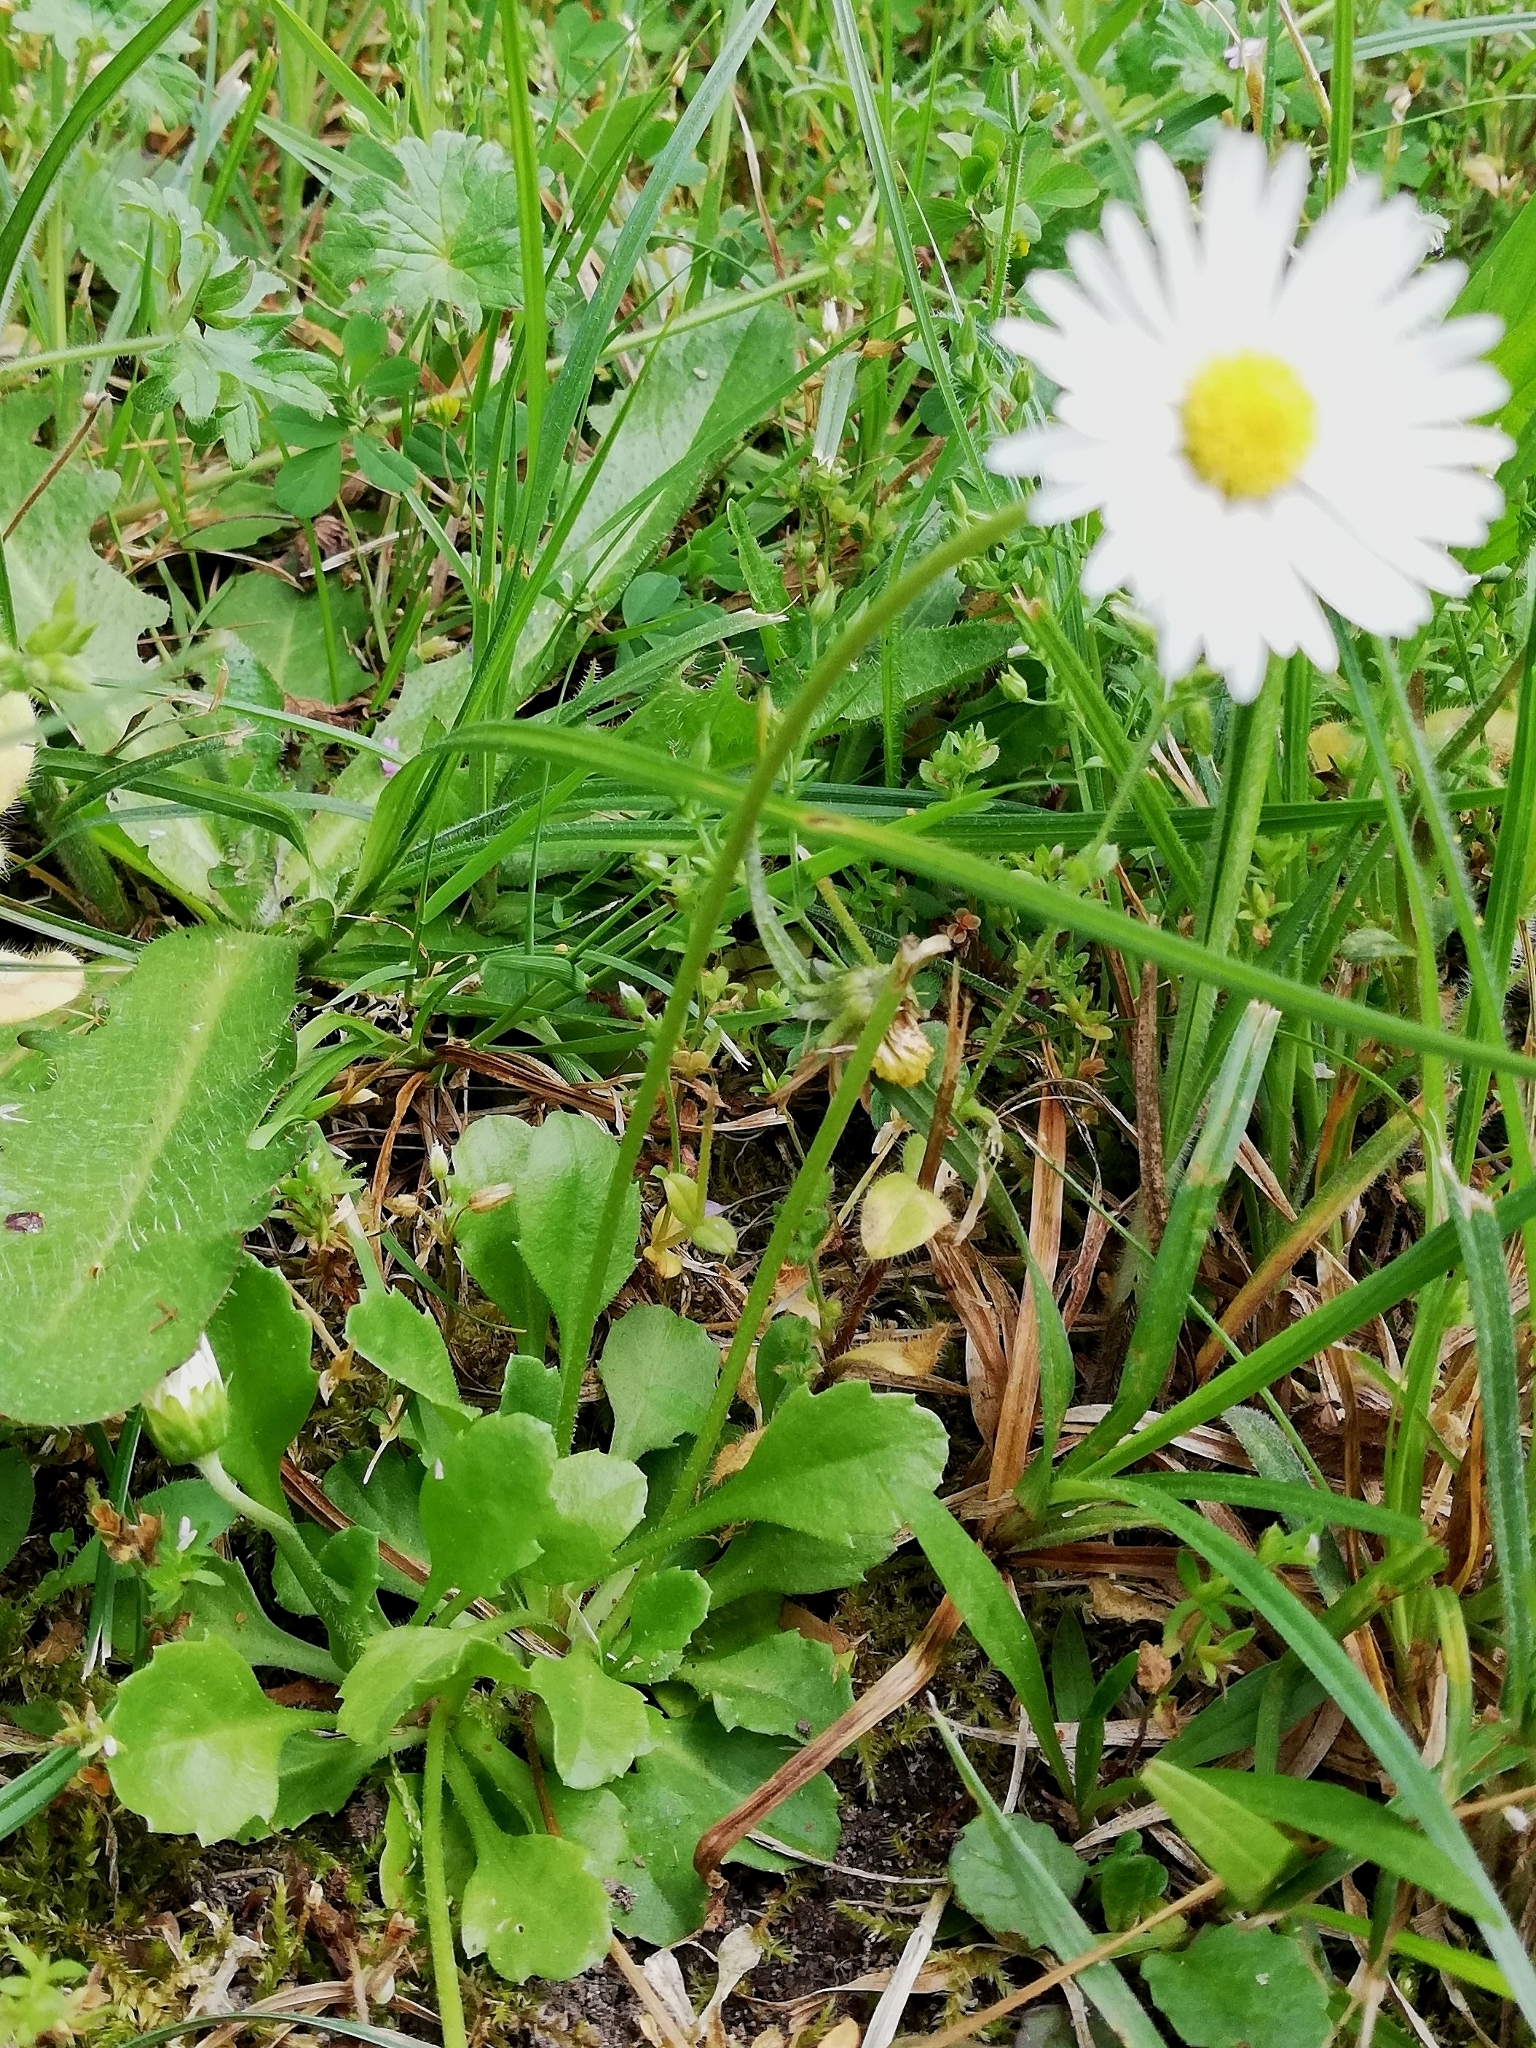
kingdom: Plantae
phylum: Tracheophyta
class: Magnoliopsida
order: Asterales
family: Asteraceae
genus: Bellis
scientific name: Bellis perennis
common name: Lawndaisy
